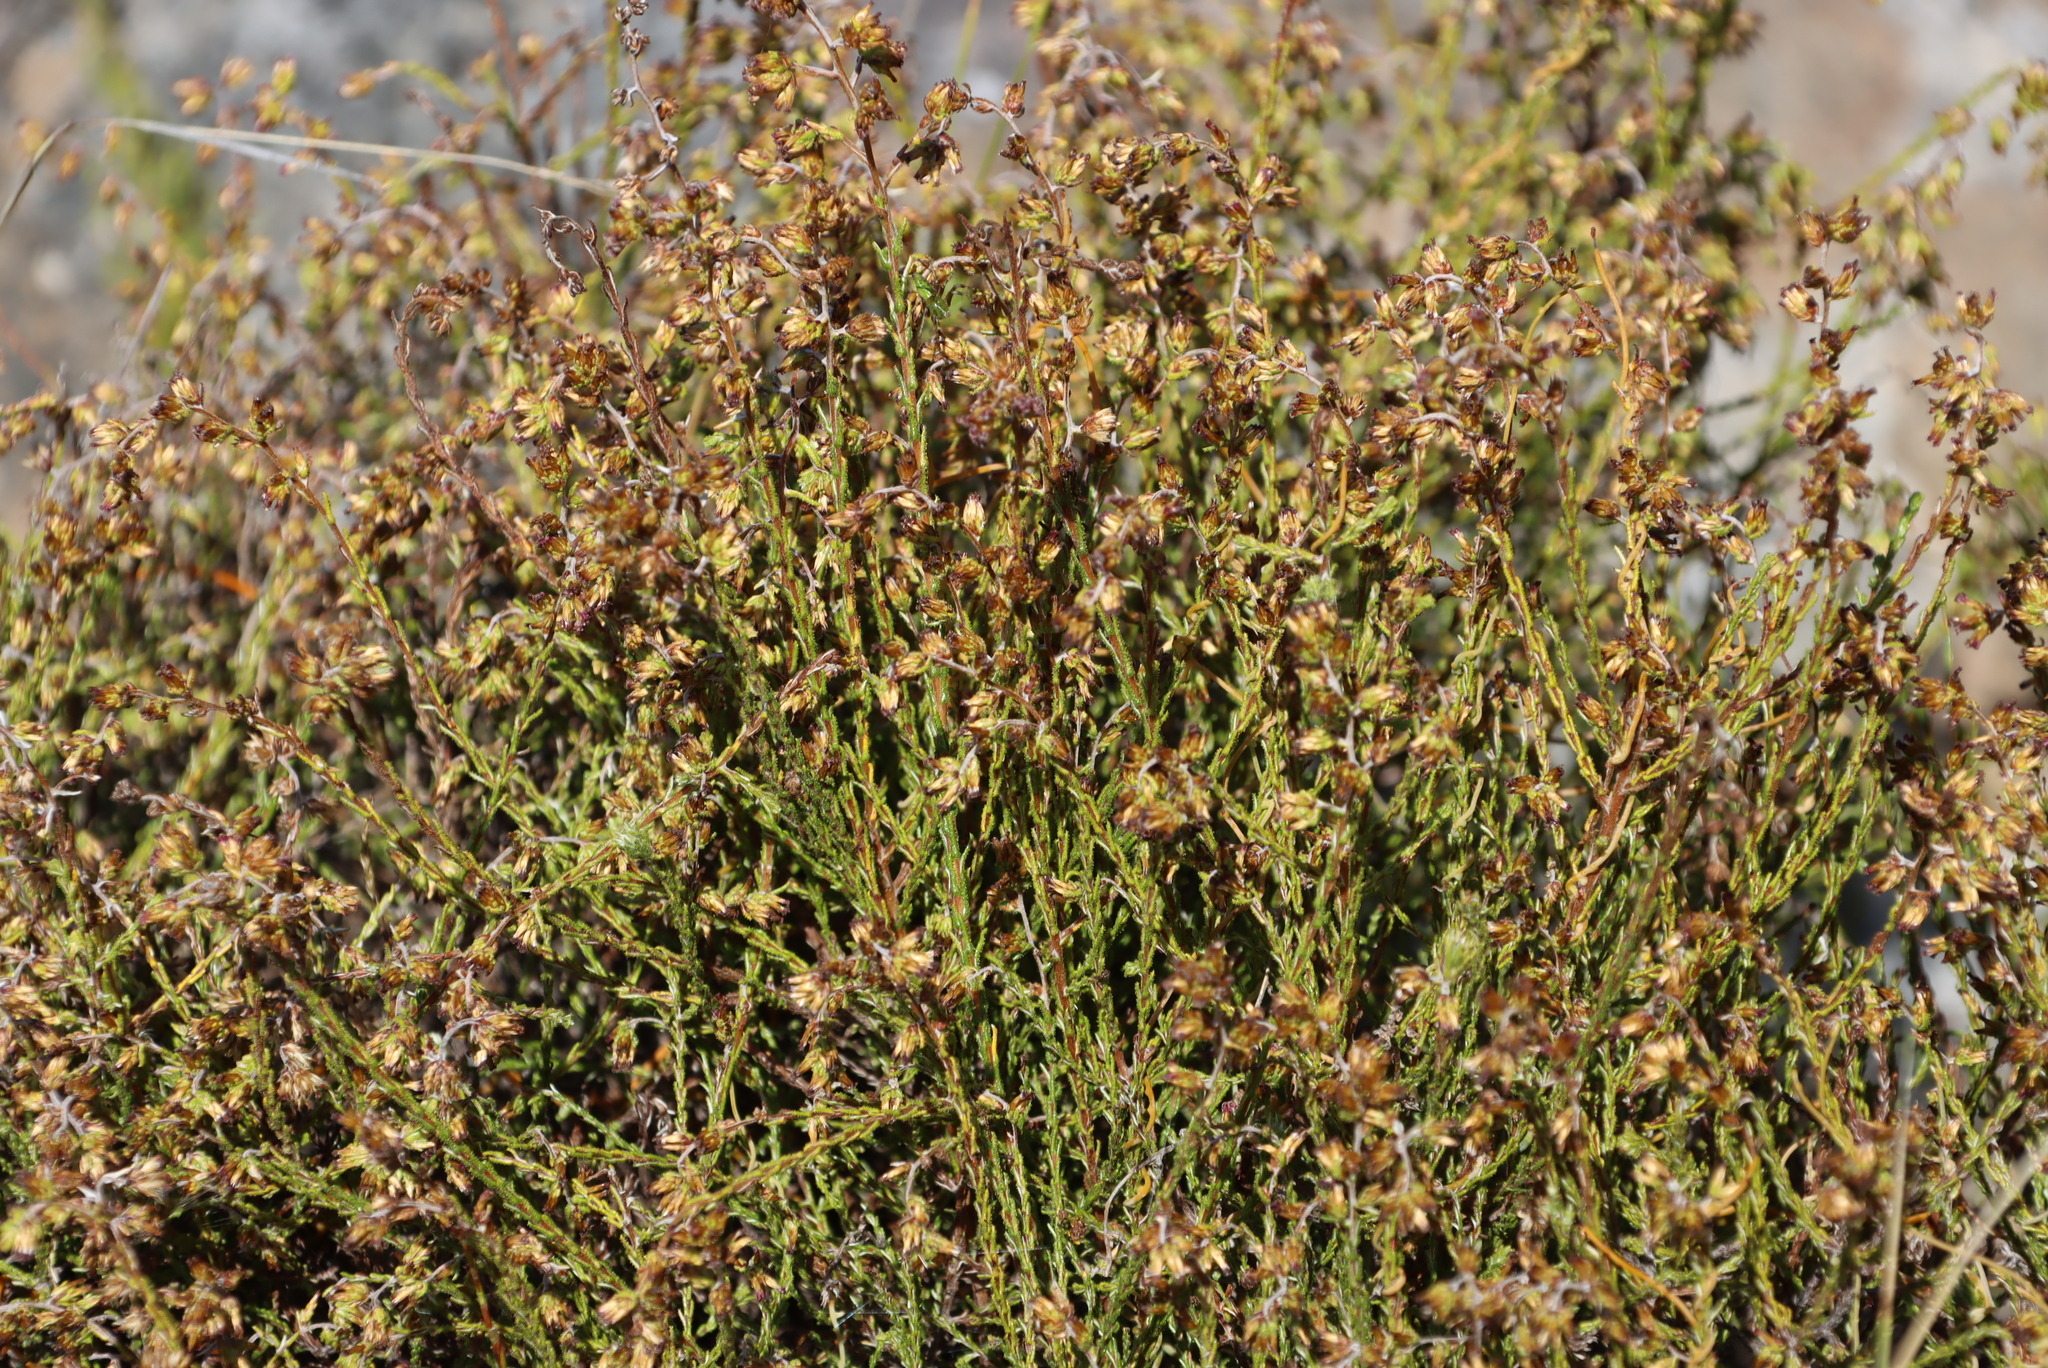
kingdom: Plantae
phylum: Tracheophyta
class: Magnoliopsida
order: Asterales
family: Asteraceae
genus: Myrovernix
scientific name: Myrovernix scaber
